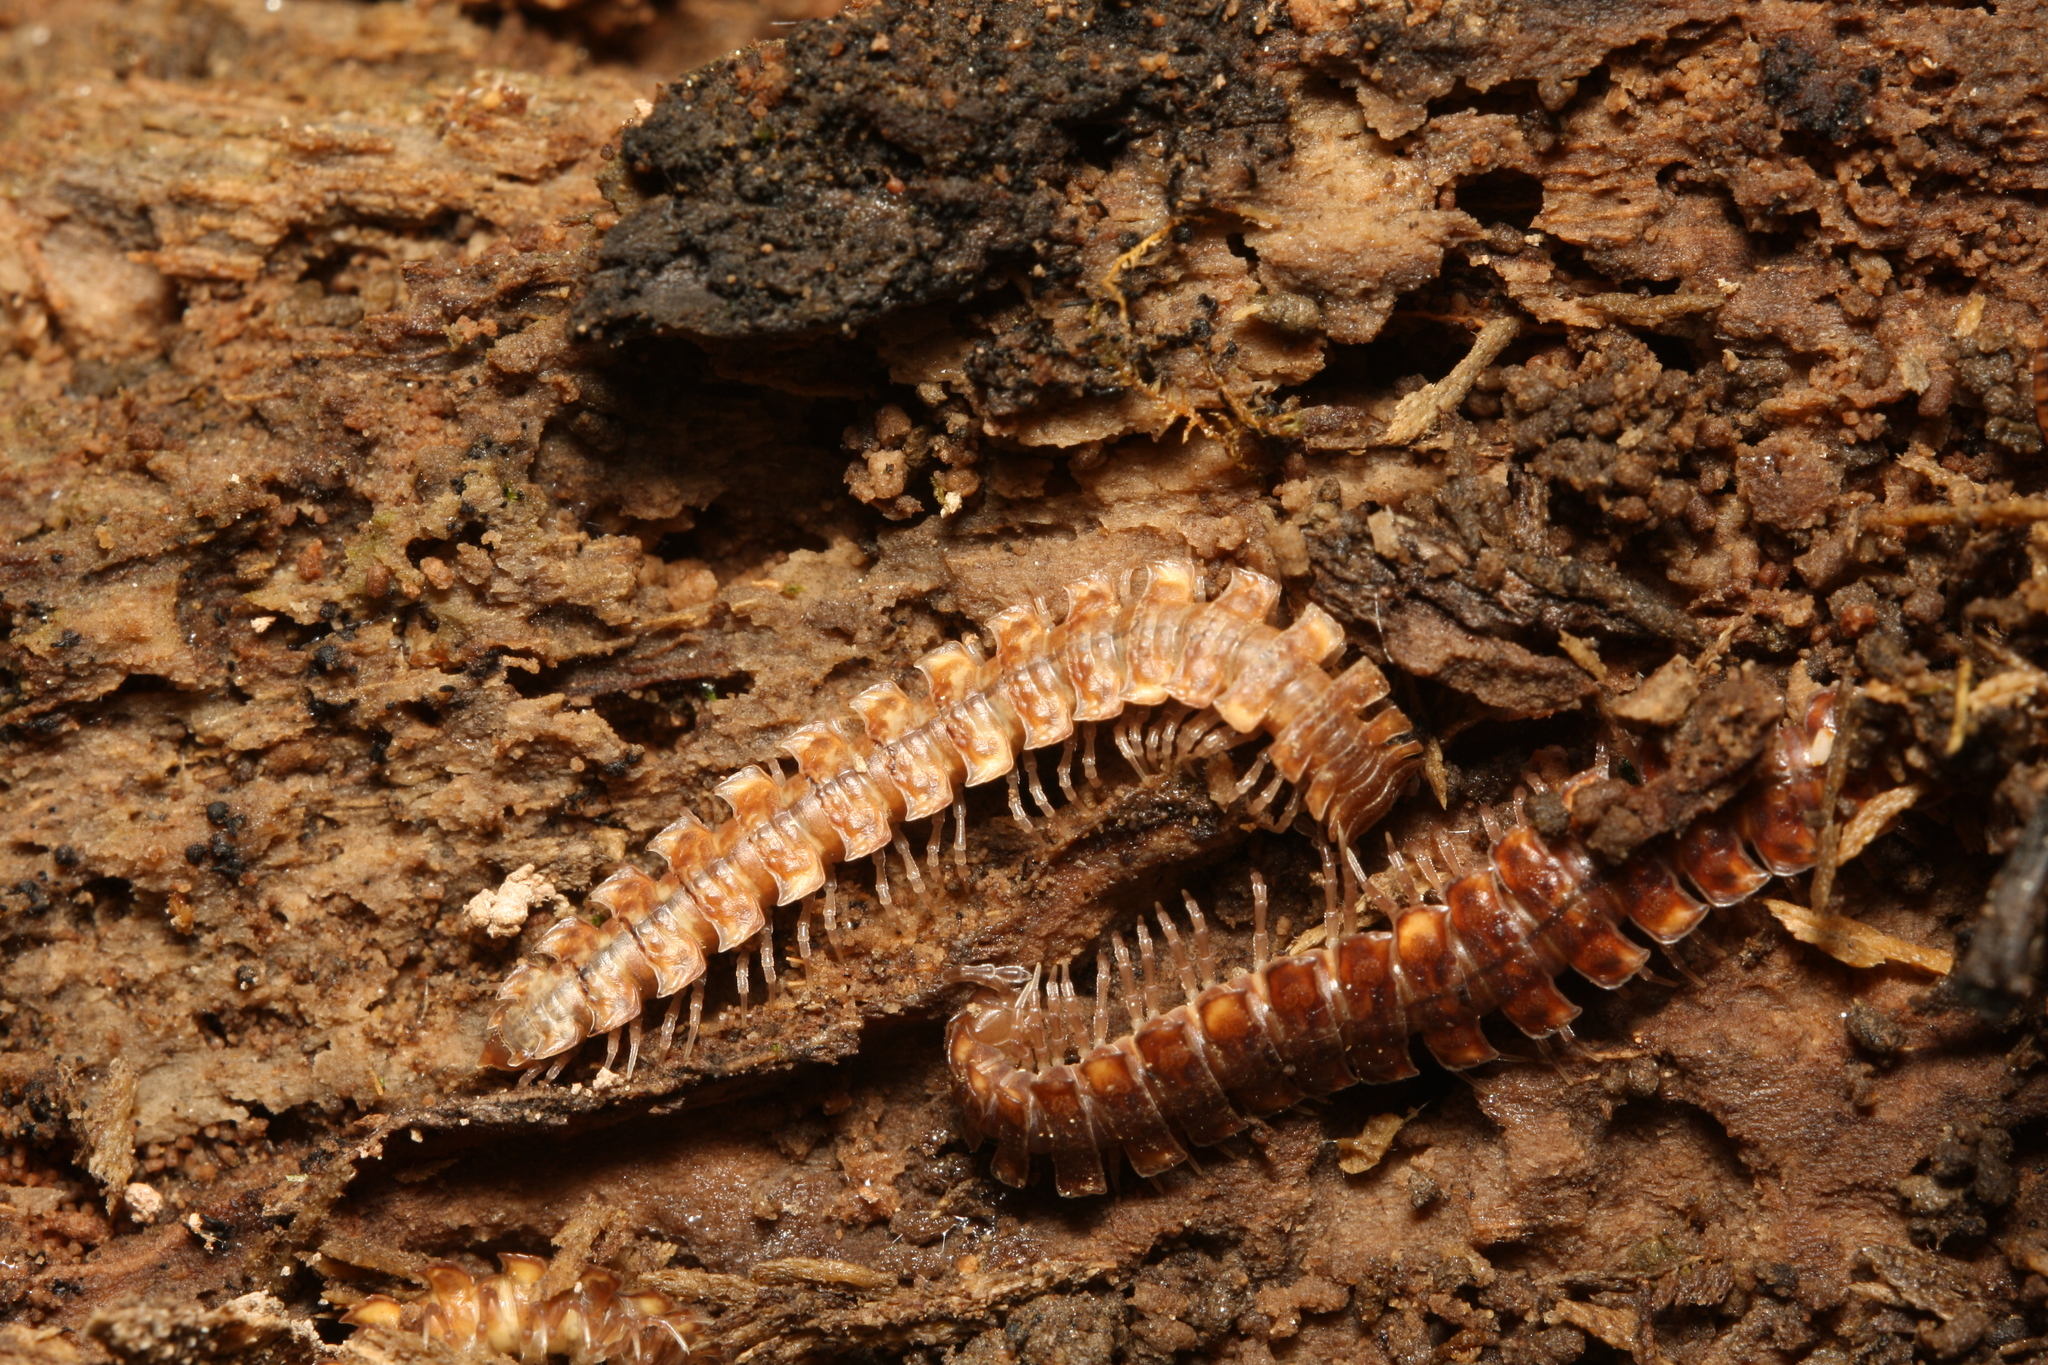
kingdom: Animalia
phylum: Arthropoda
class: Diplopoda
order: Polydesmida
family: Polydesmidae
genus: Polydesmus
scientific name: Polydesmus complanatus
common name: Flat-backed millipede
